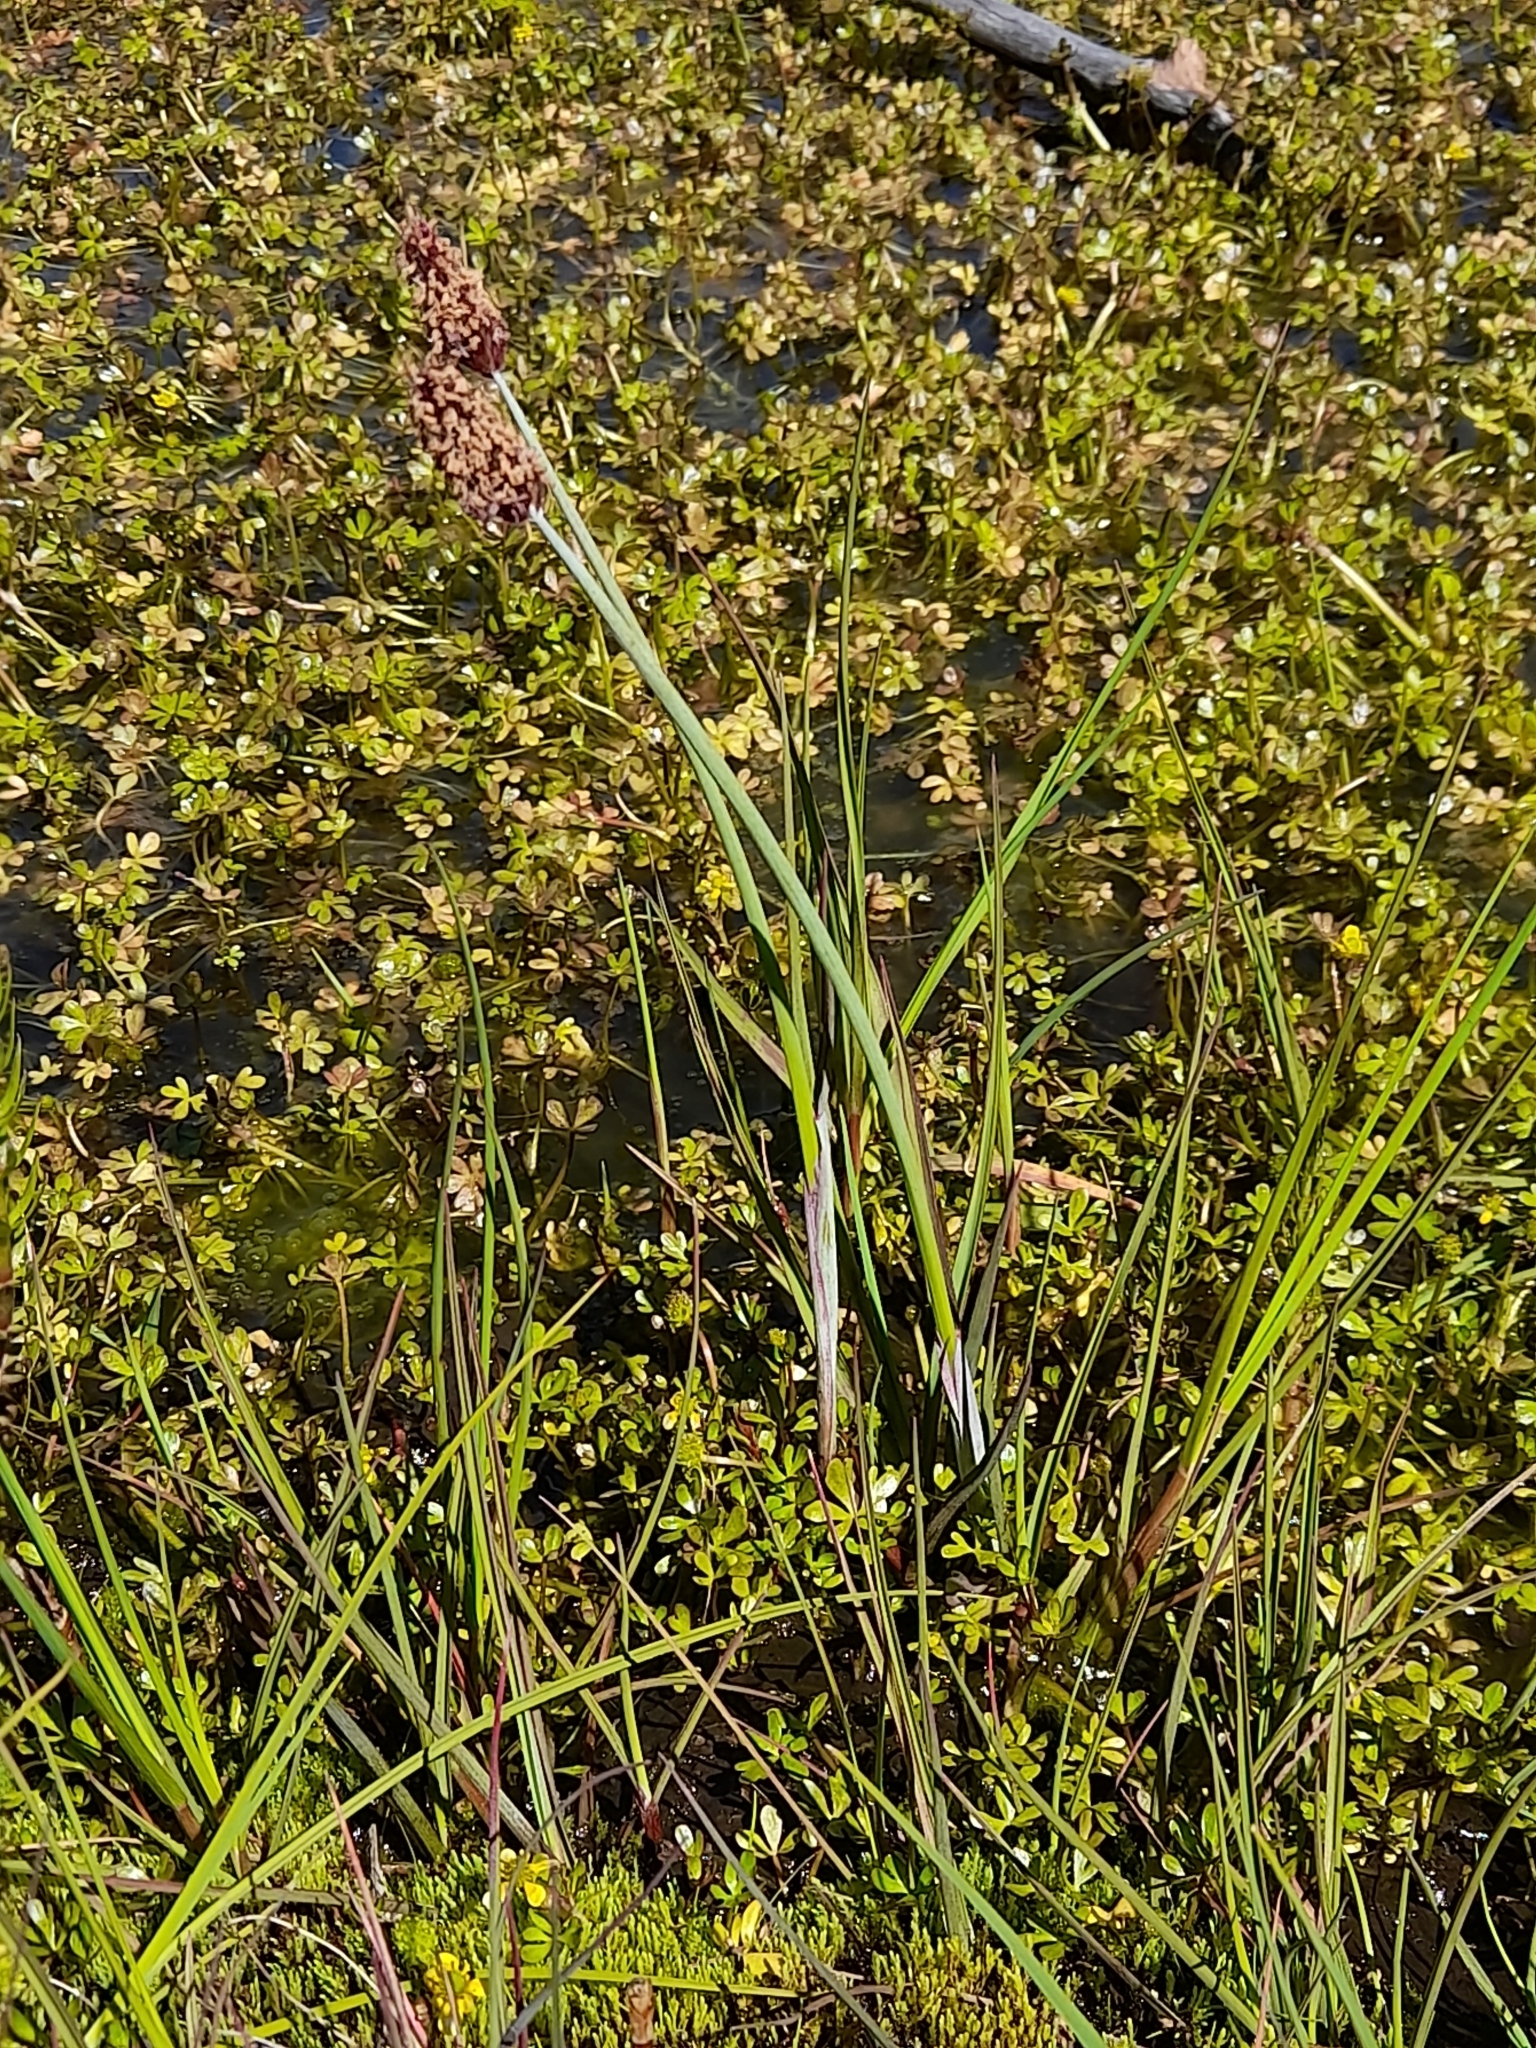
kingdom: Plantae
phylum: Tracheophyta
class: Liliopsida
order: Poales
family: Poaceae
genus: Alopecurus
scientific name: Alopecurus magellanicus
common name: Alpine foxtail
